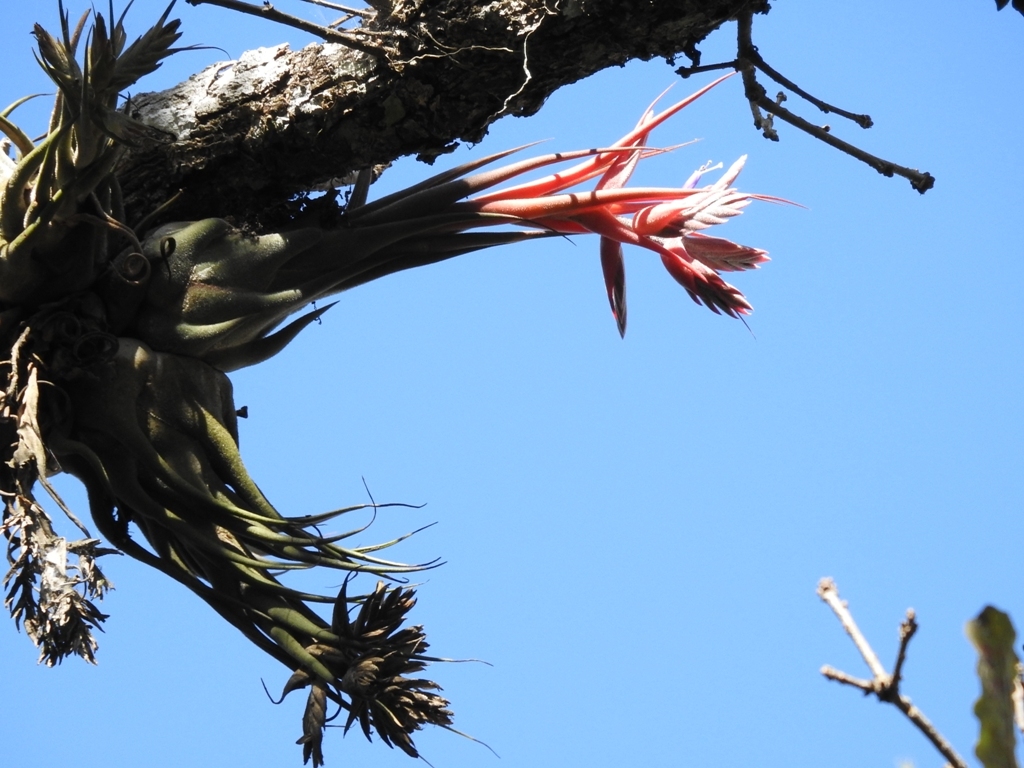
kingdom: Plantae
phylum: Tracheophyta
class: Liliopsida
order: Poales
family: Bromeliaceae
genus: Tillandsia
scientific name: Tillandsia seleriana
